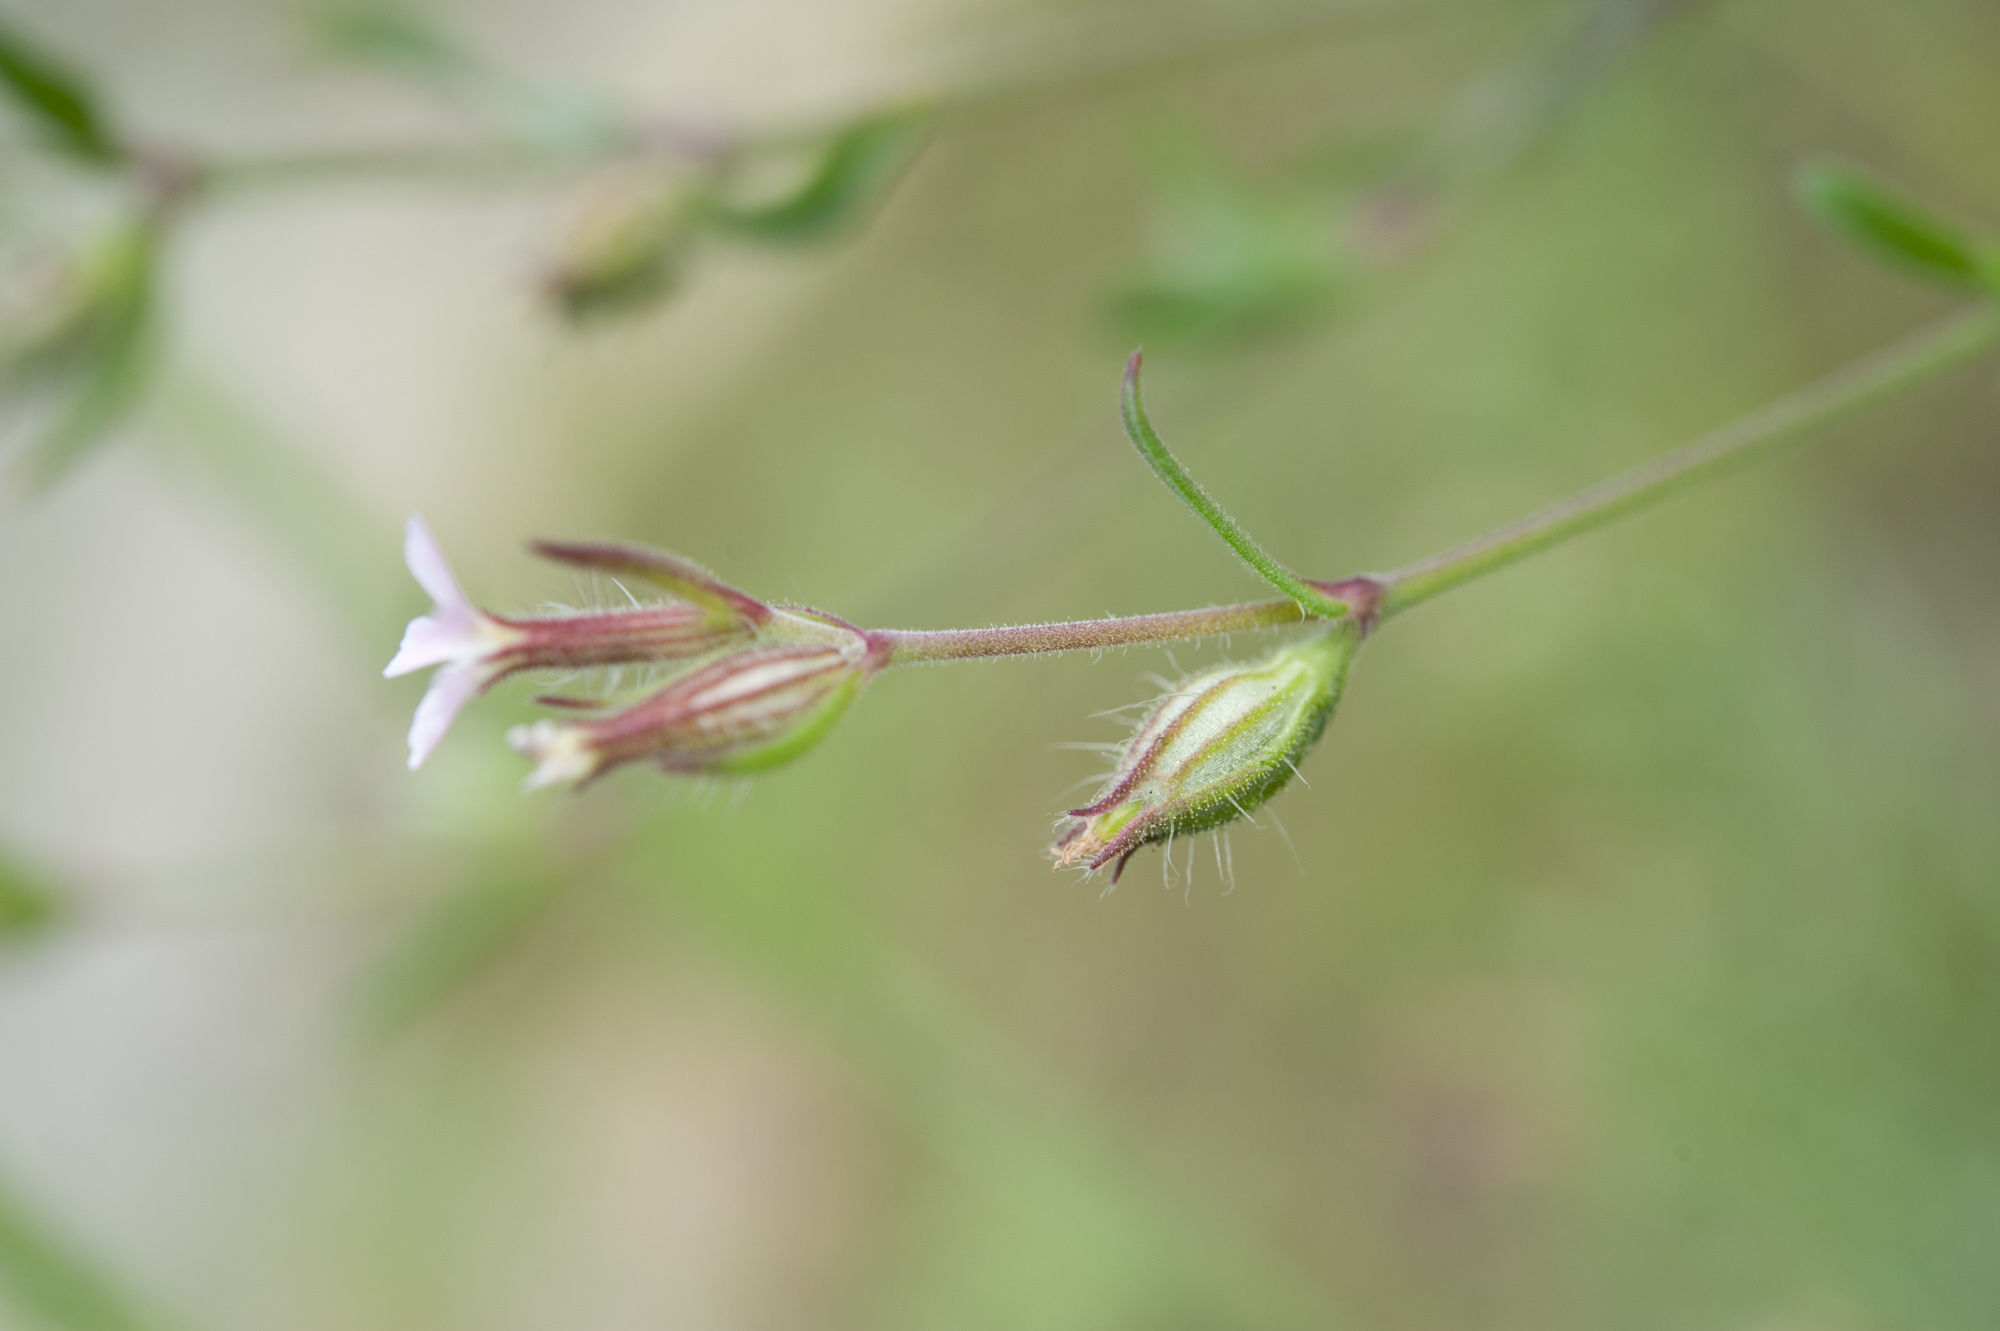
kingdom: Plantae
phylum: Tracheophyta
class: Magnoliopsida
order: Caryophyllales
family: Caryophyllaceae
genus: Silene
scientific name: Silene gallica
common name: Small-flowered catchfly
